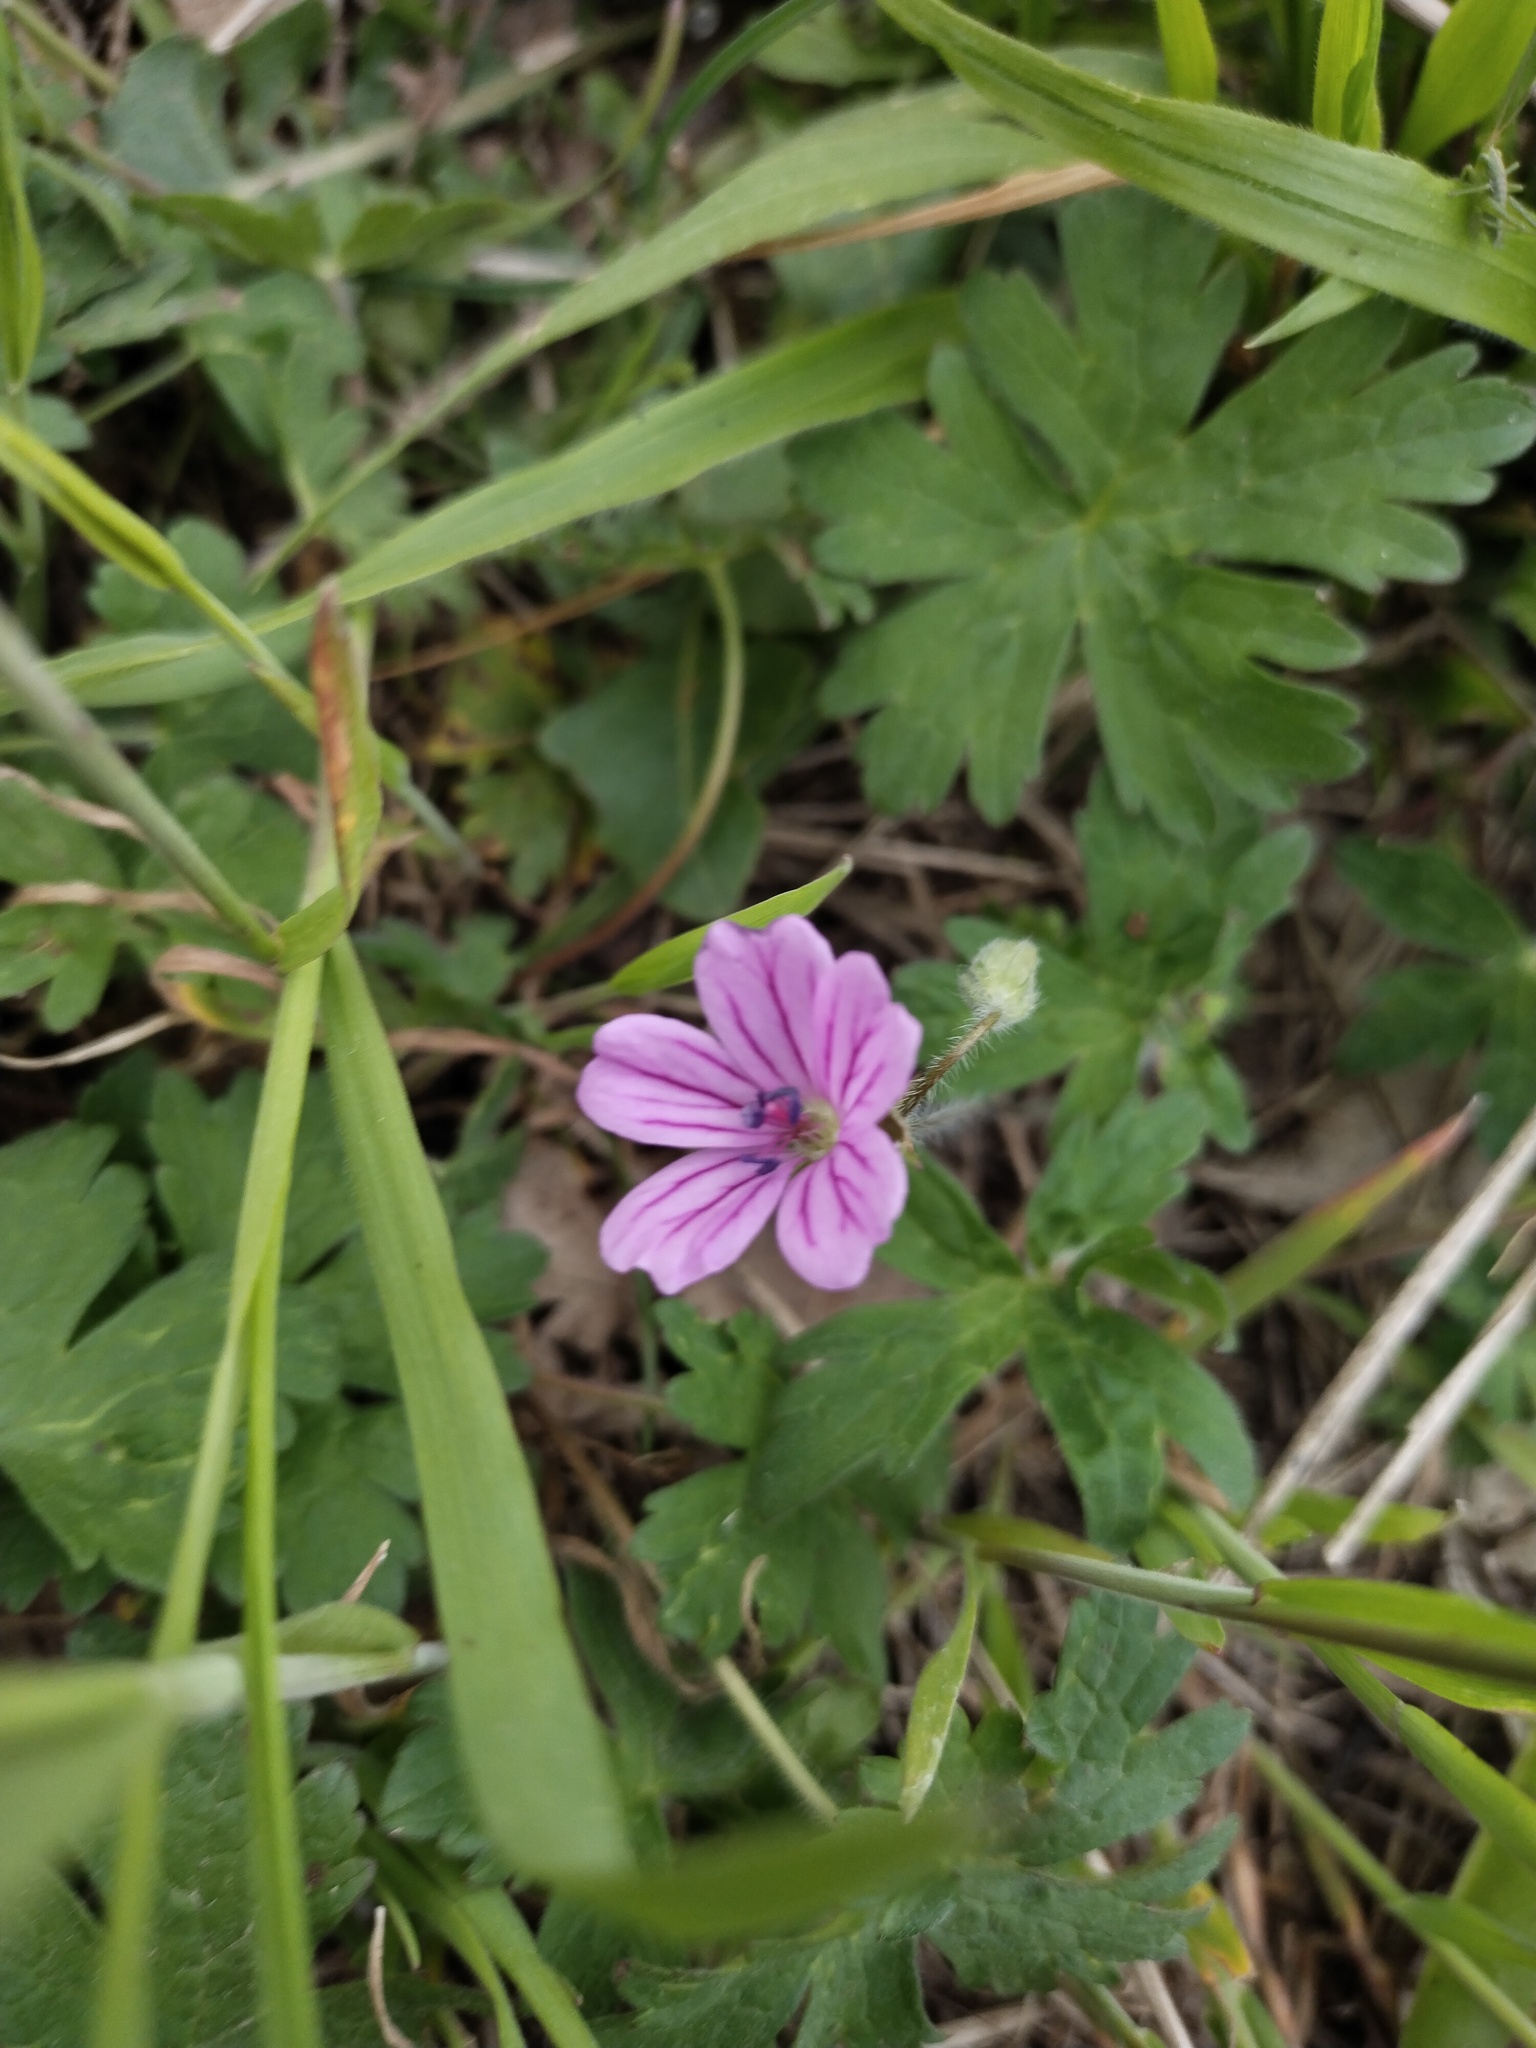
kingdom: Plantae
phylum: Tracheophyta
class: Magnoliopsida
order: Geraniales
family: Geraniaceae
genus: Geranium
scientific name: Geranium albanum
